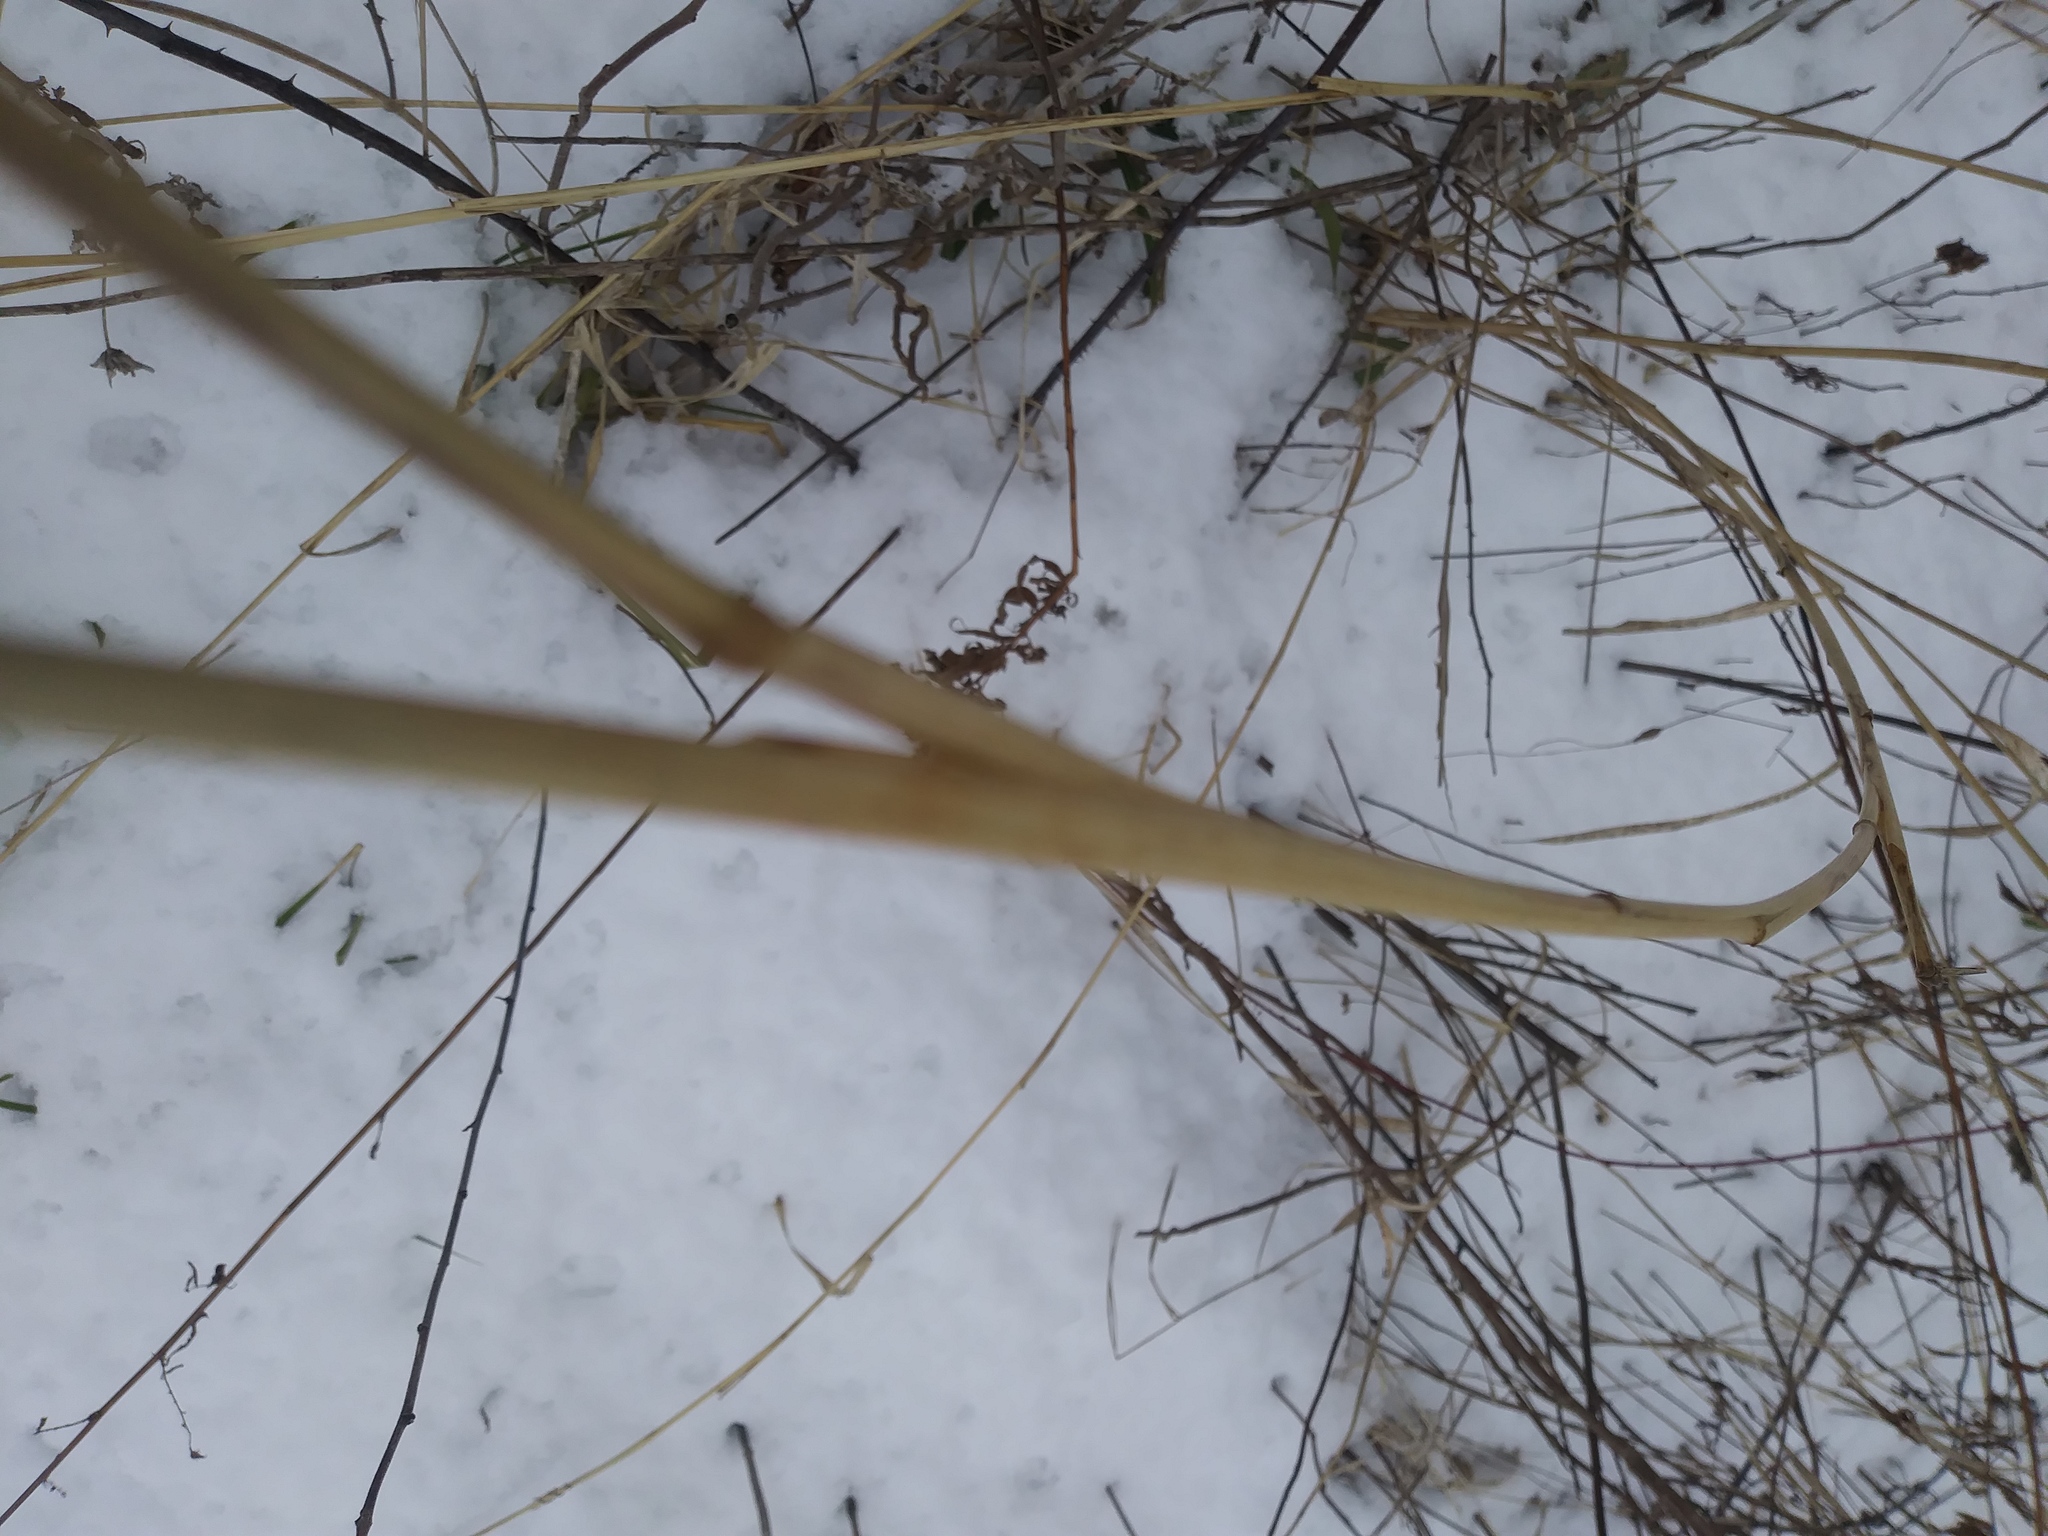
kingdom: Plantae
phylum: Tracheophyta
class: Liliopsida
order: Poales
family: Poaceae
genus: Elymus
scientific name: Elymus riparius
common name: Eastern riverbank wild rye
